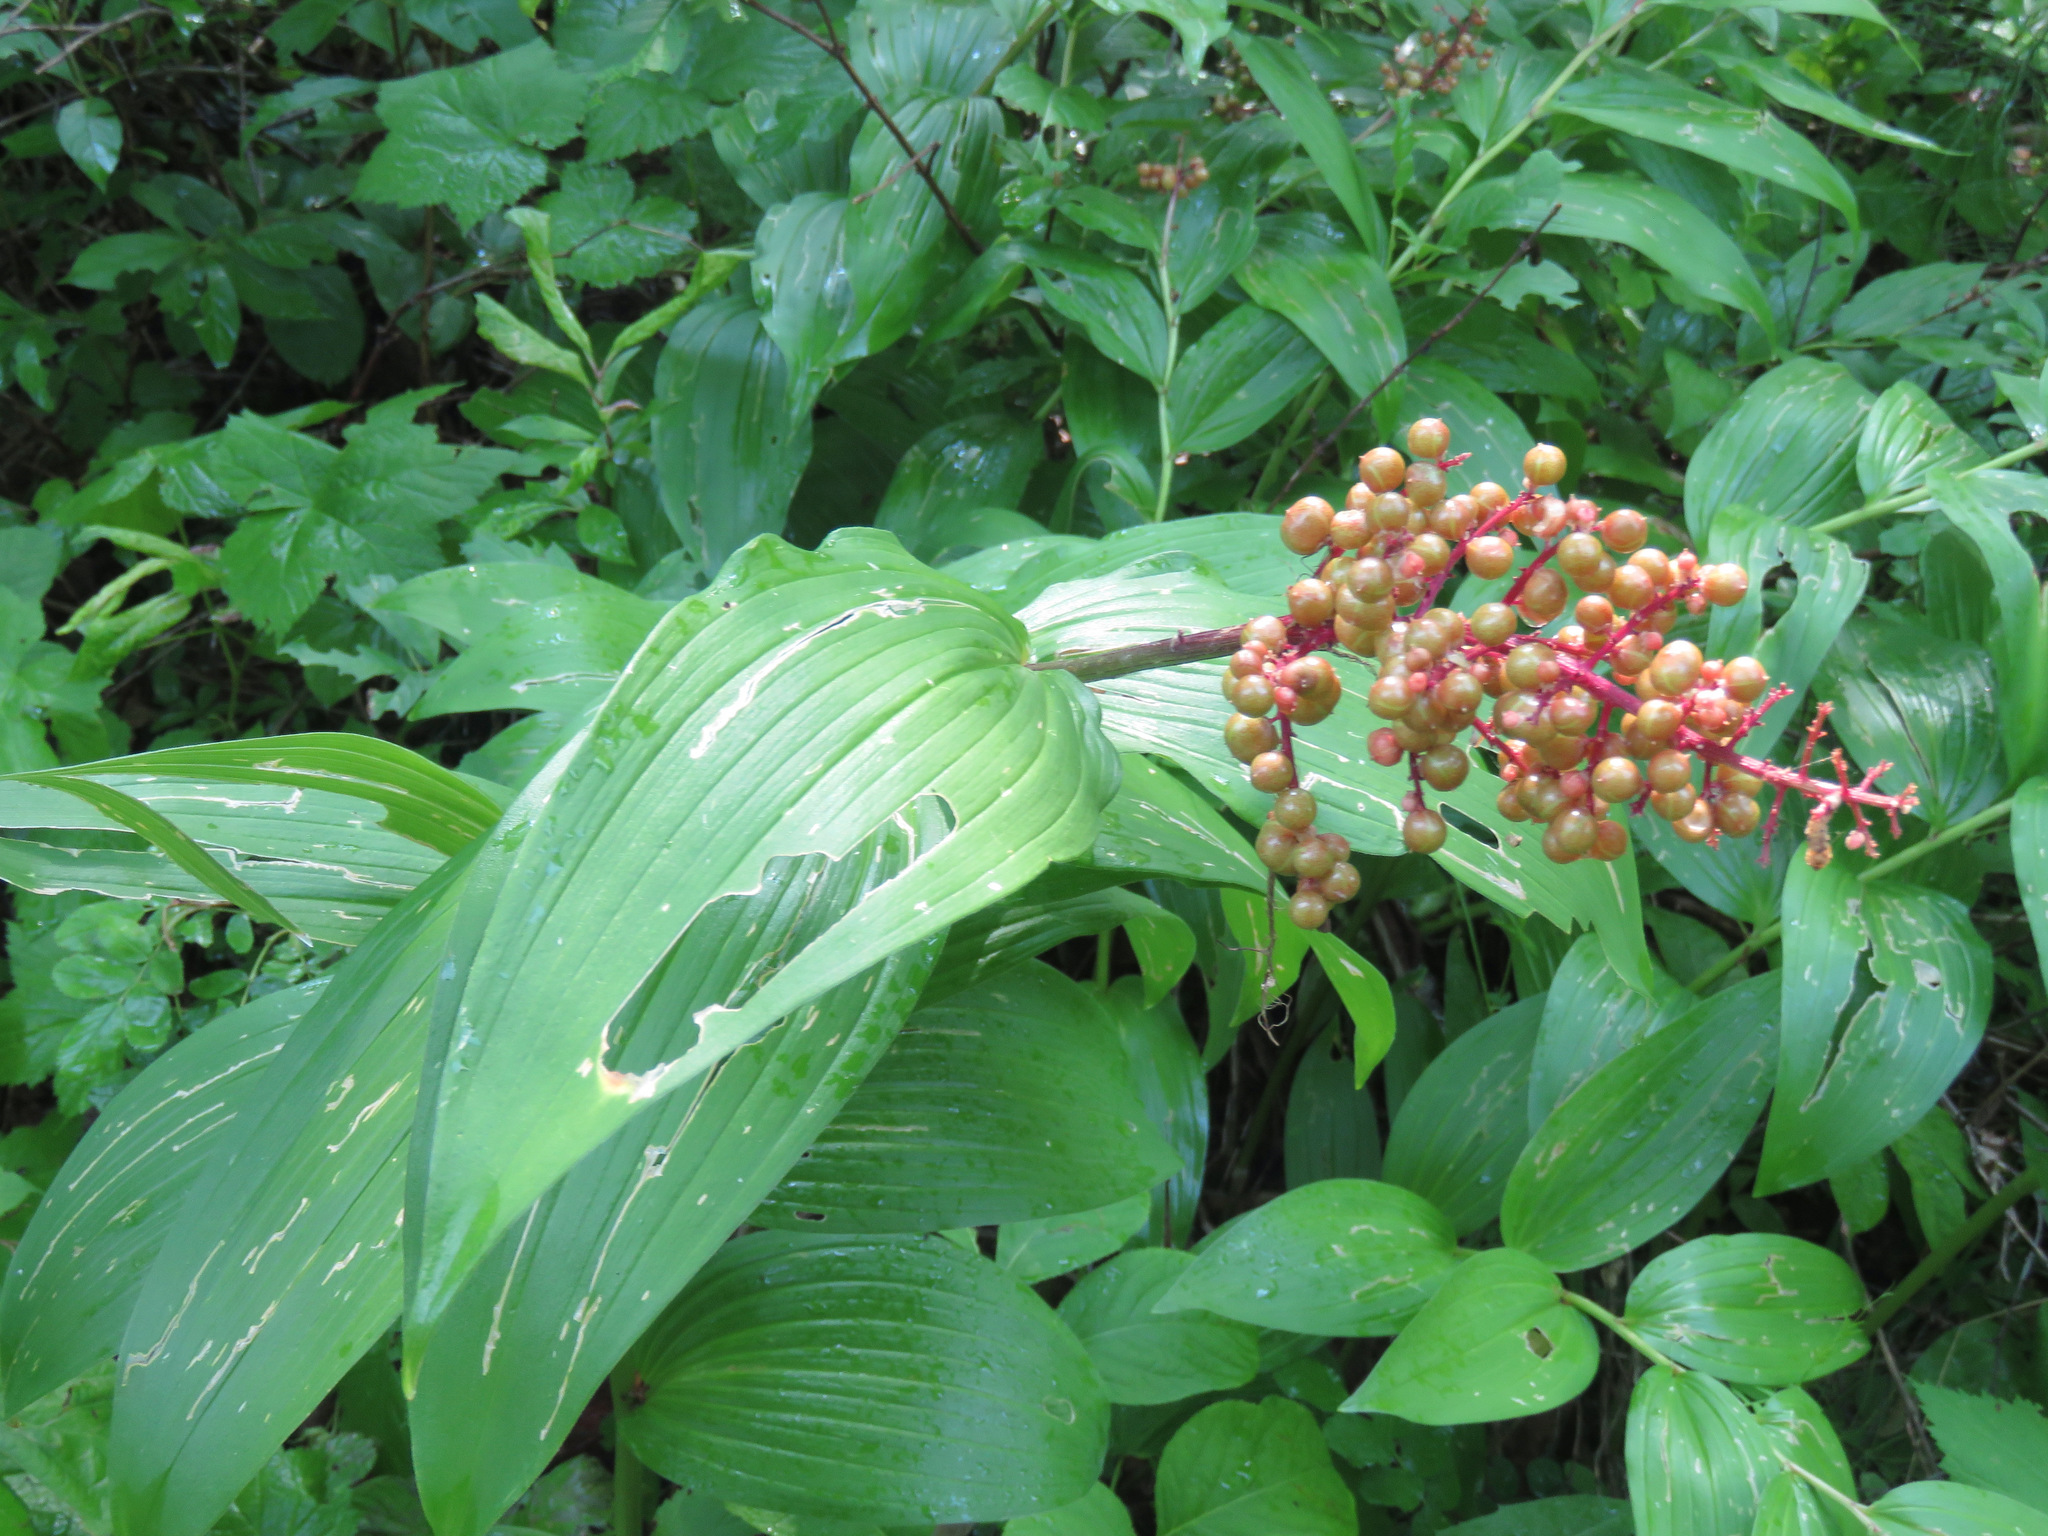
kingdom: Plantae
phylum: Tracheophyta
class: Liliopsida
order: Asparagales
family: Asparagaceae
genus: Maianthemum
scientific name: Maianthemum racemosum
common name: False spikenard
